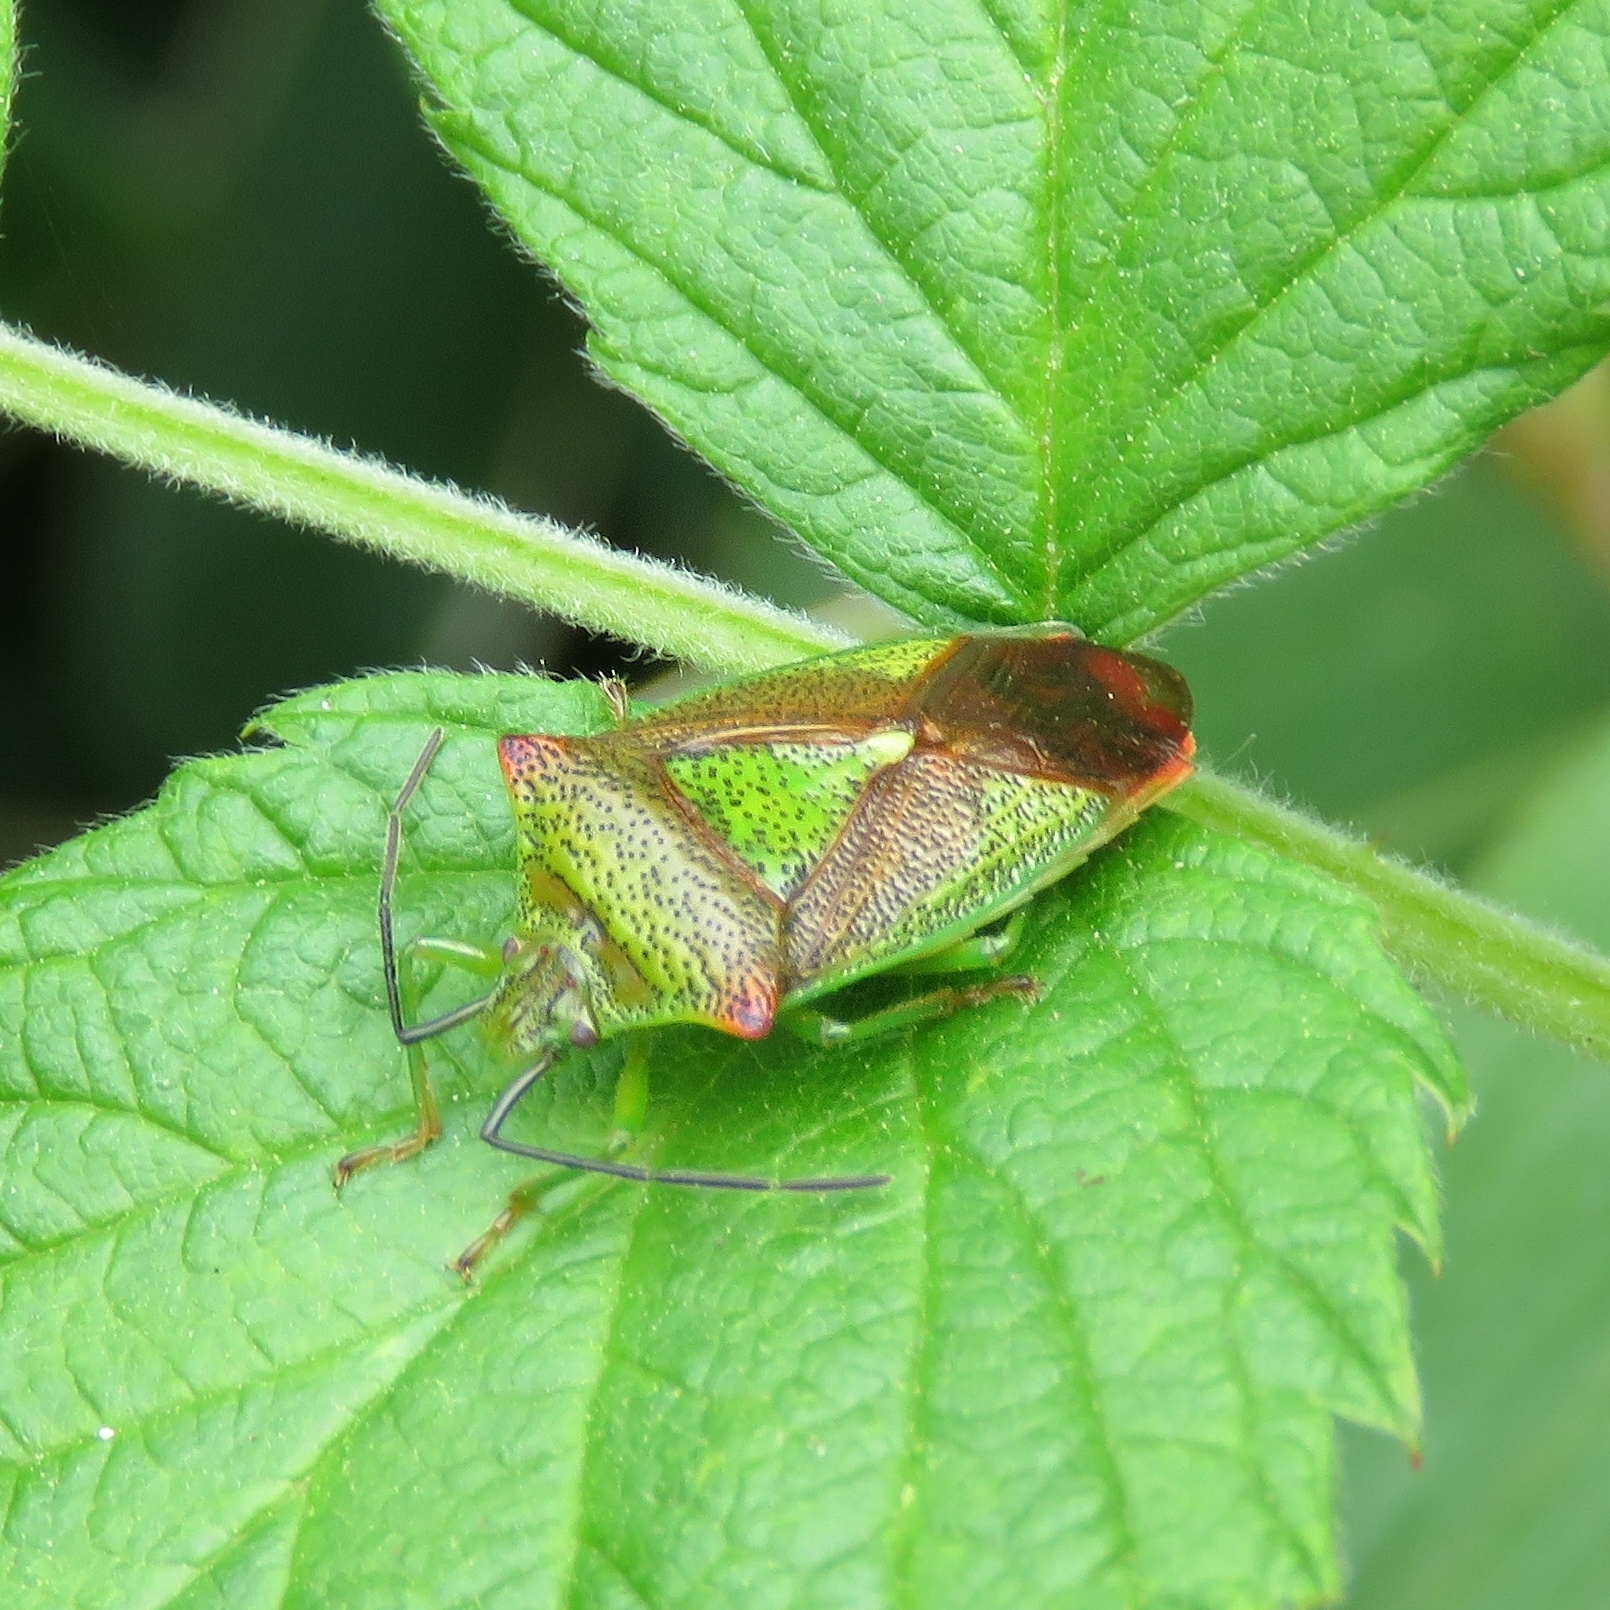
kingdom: Animalia
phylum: Arthropoda
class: Insecta
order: Hemiptera
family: Acanthosomatidae
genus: Acanthosoma
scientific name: Acanthosoma haemorrhoidale
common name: Hawthorn shieldbug
